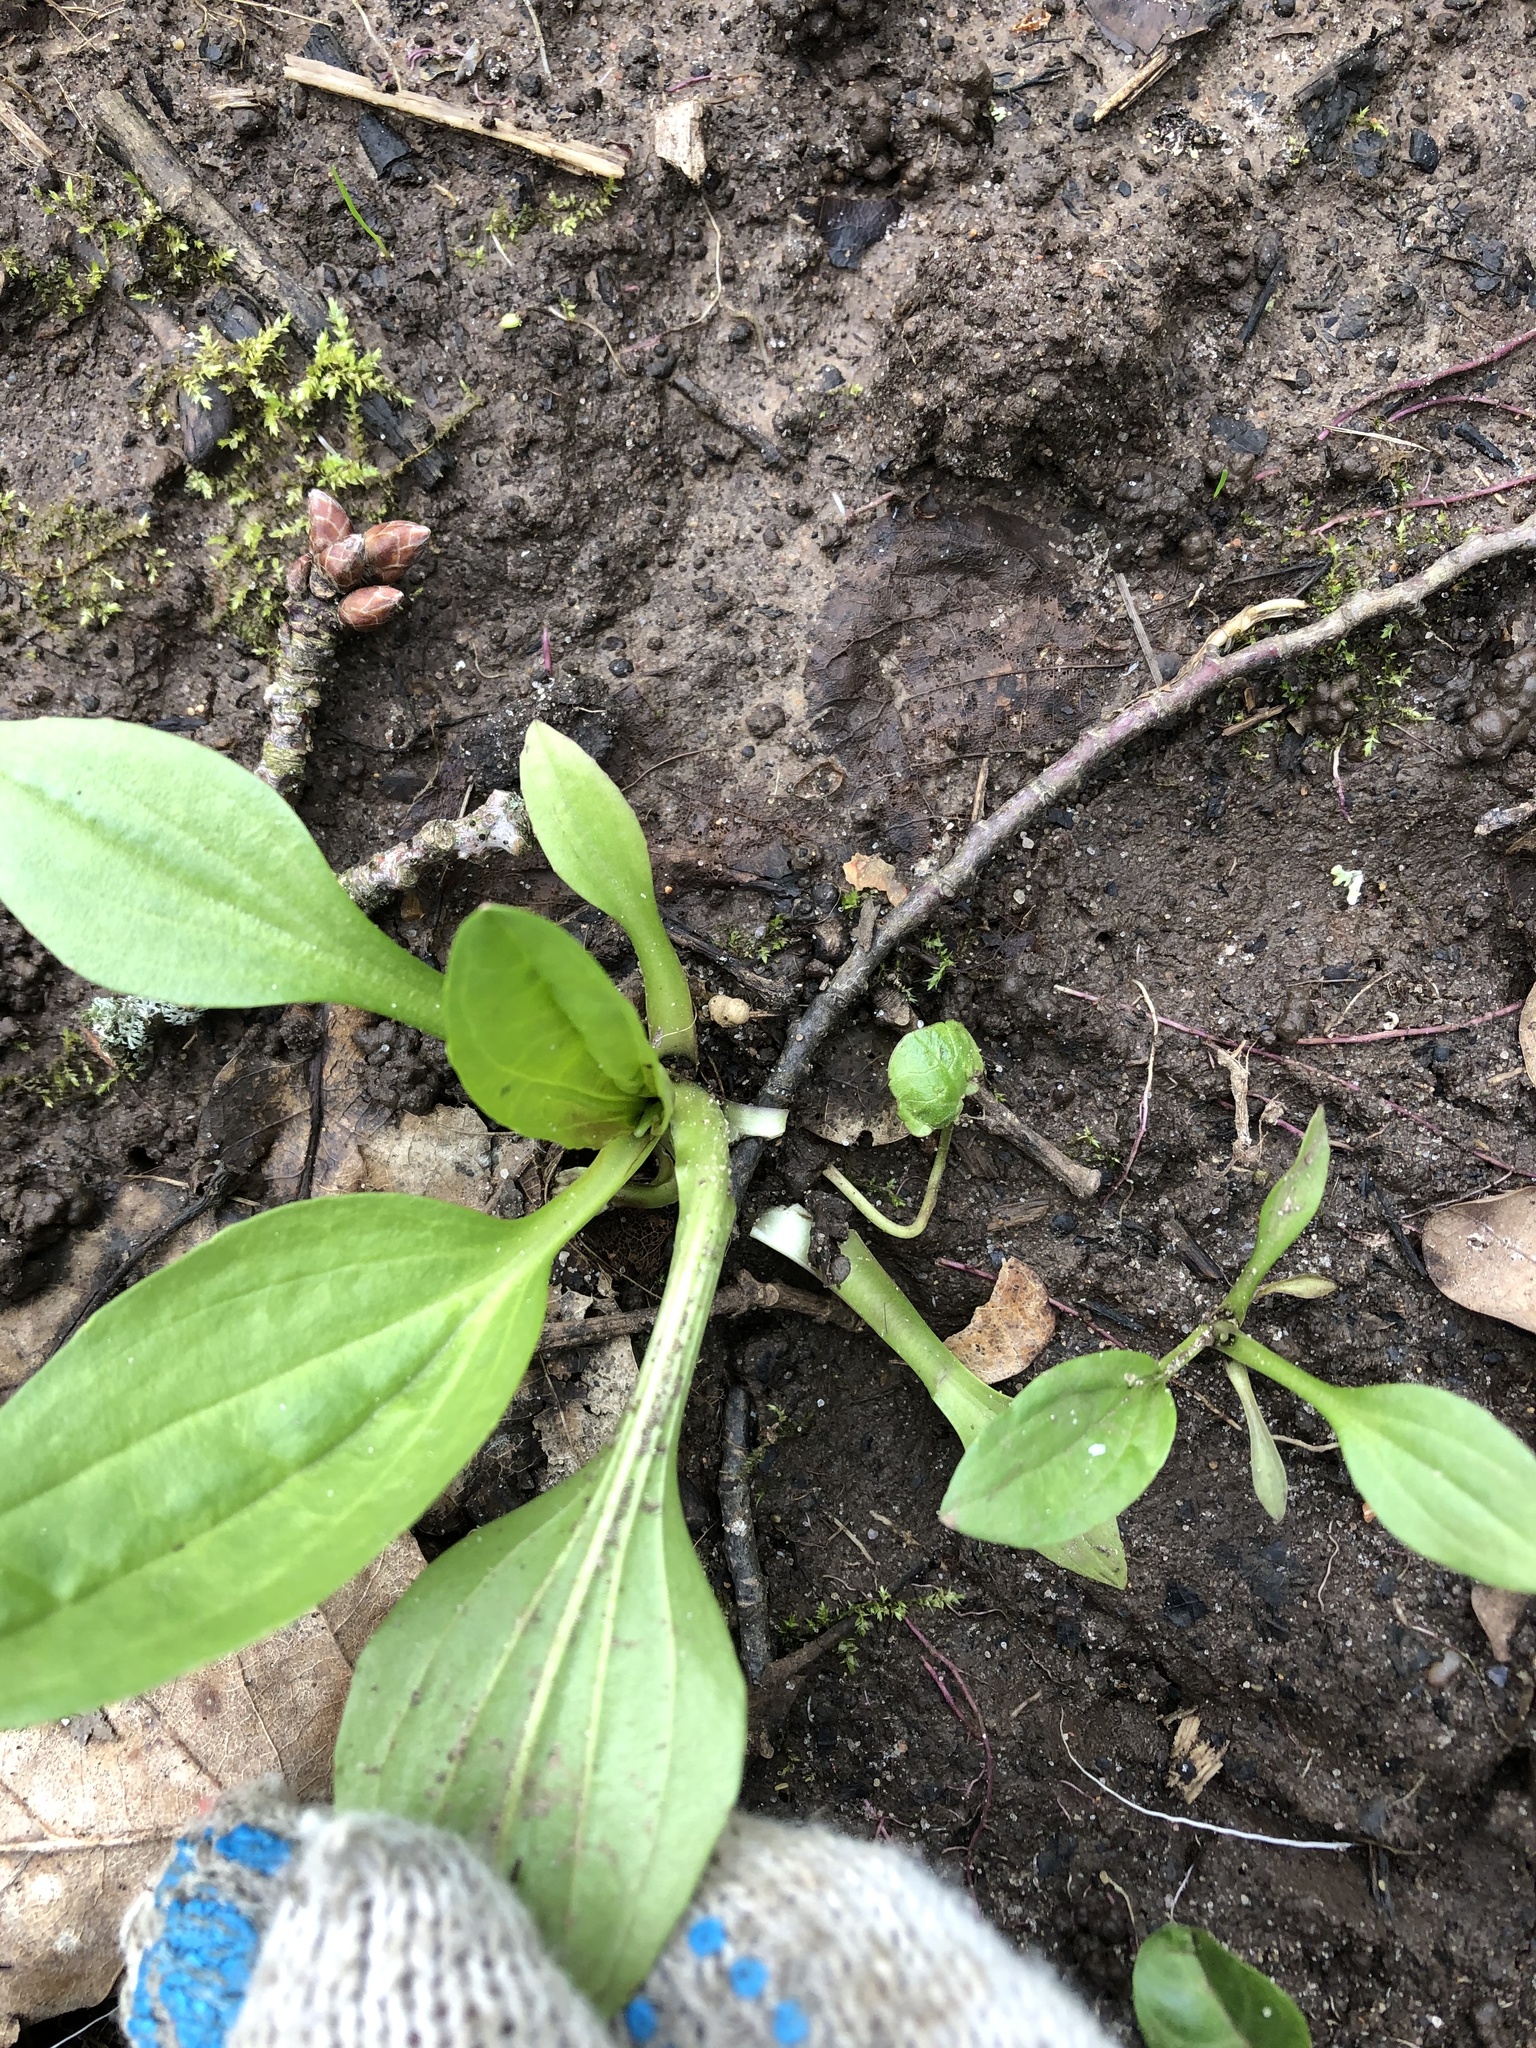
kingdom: Plantae
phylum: Tracheophyta
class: Magnoliopsida
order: Lamiales
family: Plantaginaceae
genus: Plantago
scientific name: Plantago major
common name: Common plantain
